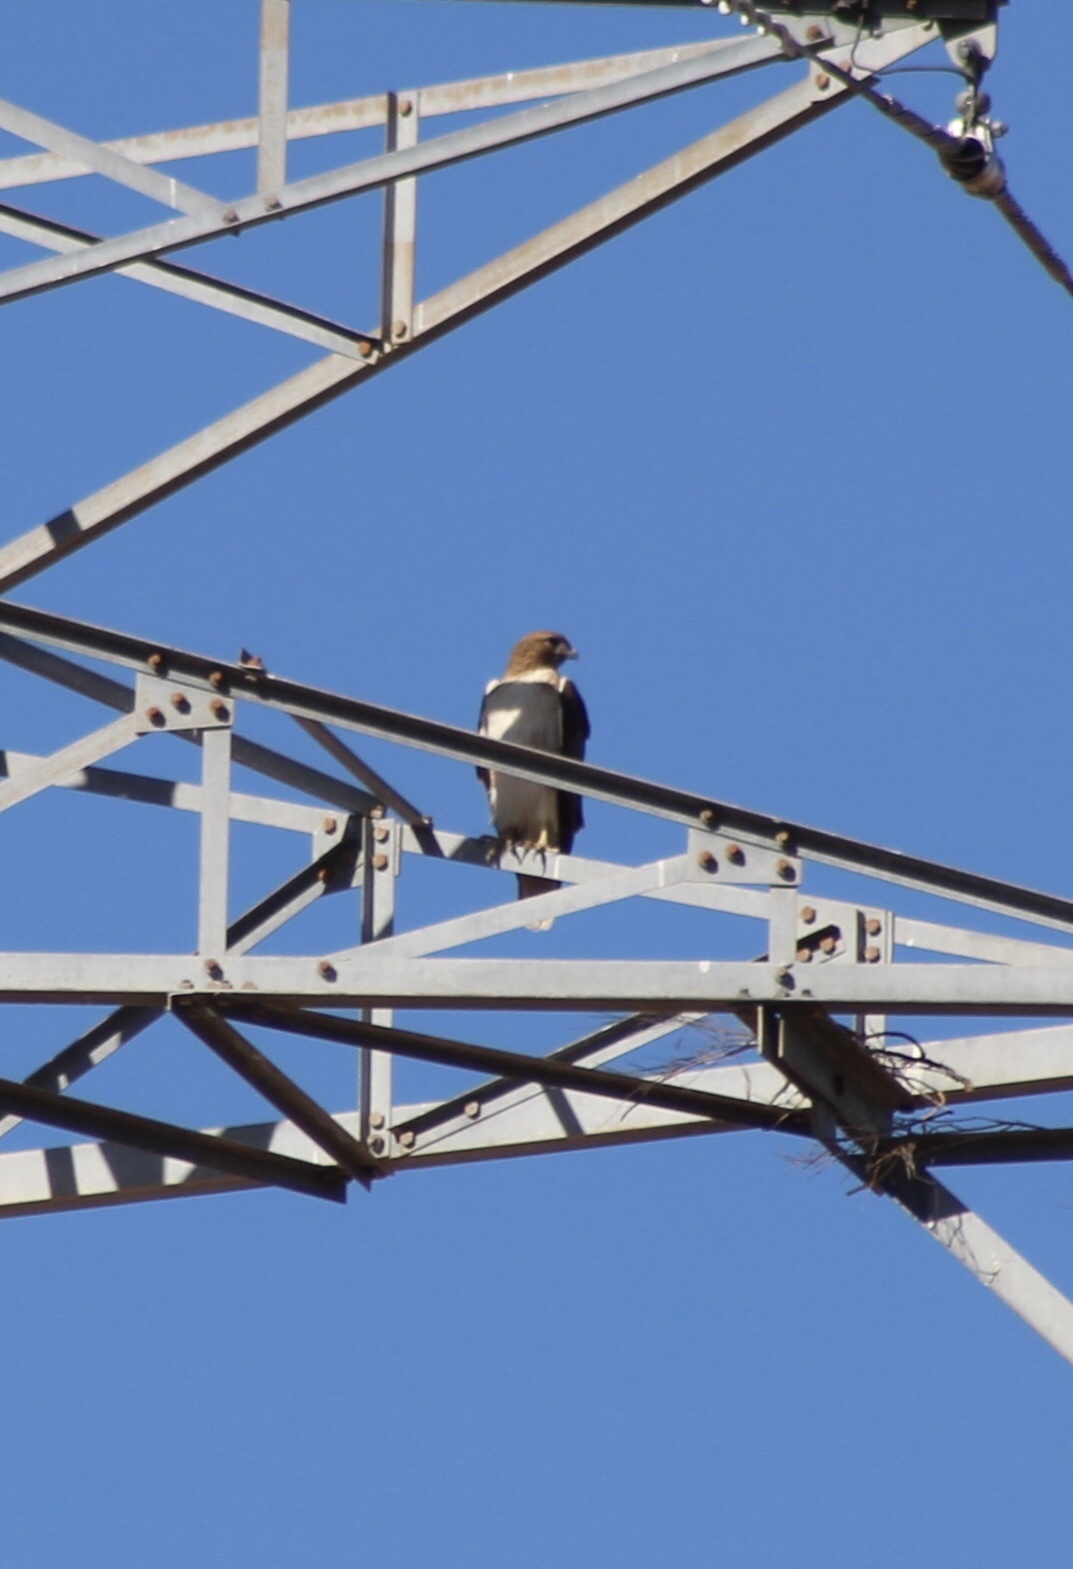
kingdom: Animalia
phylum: Chordata
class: Aves
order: Accipitriformes
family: Accipitridae
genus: Buteo
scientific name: Buteo jamaicensis
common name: Red-tailed hawk
